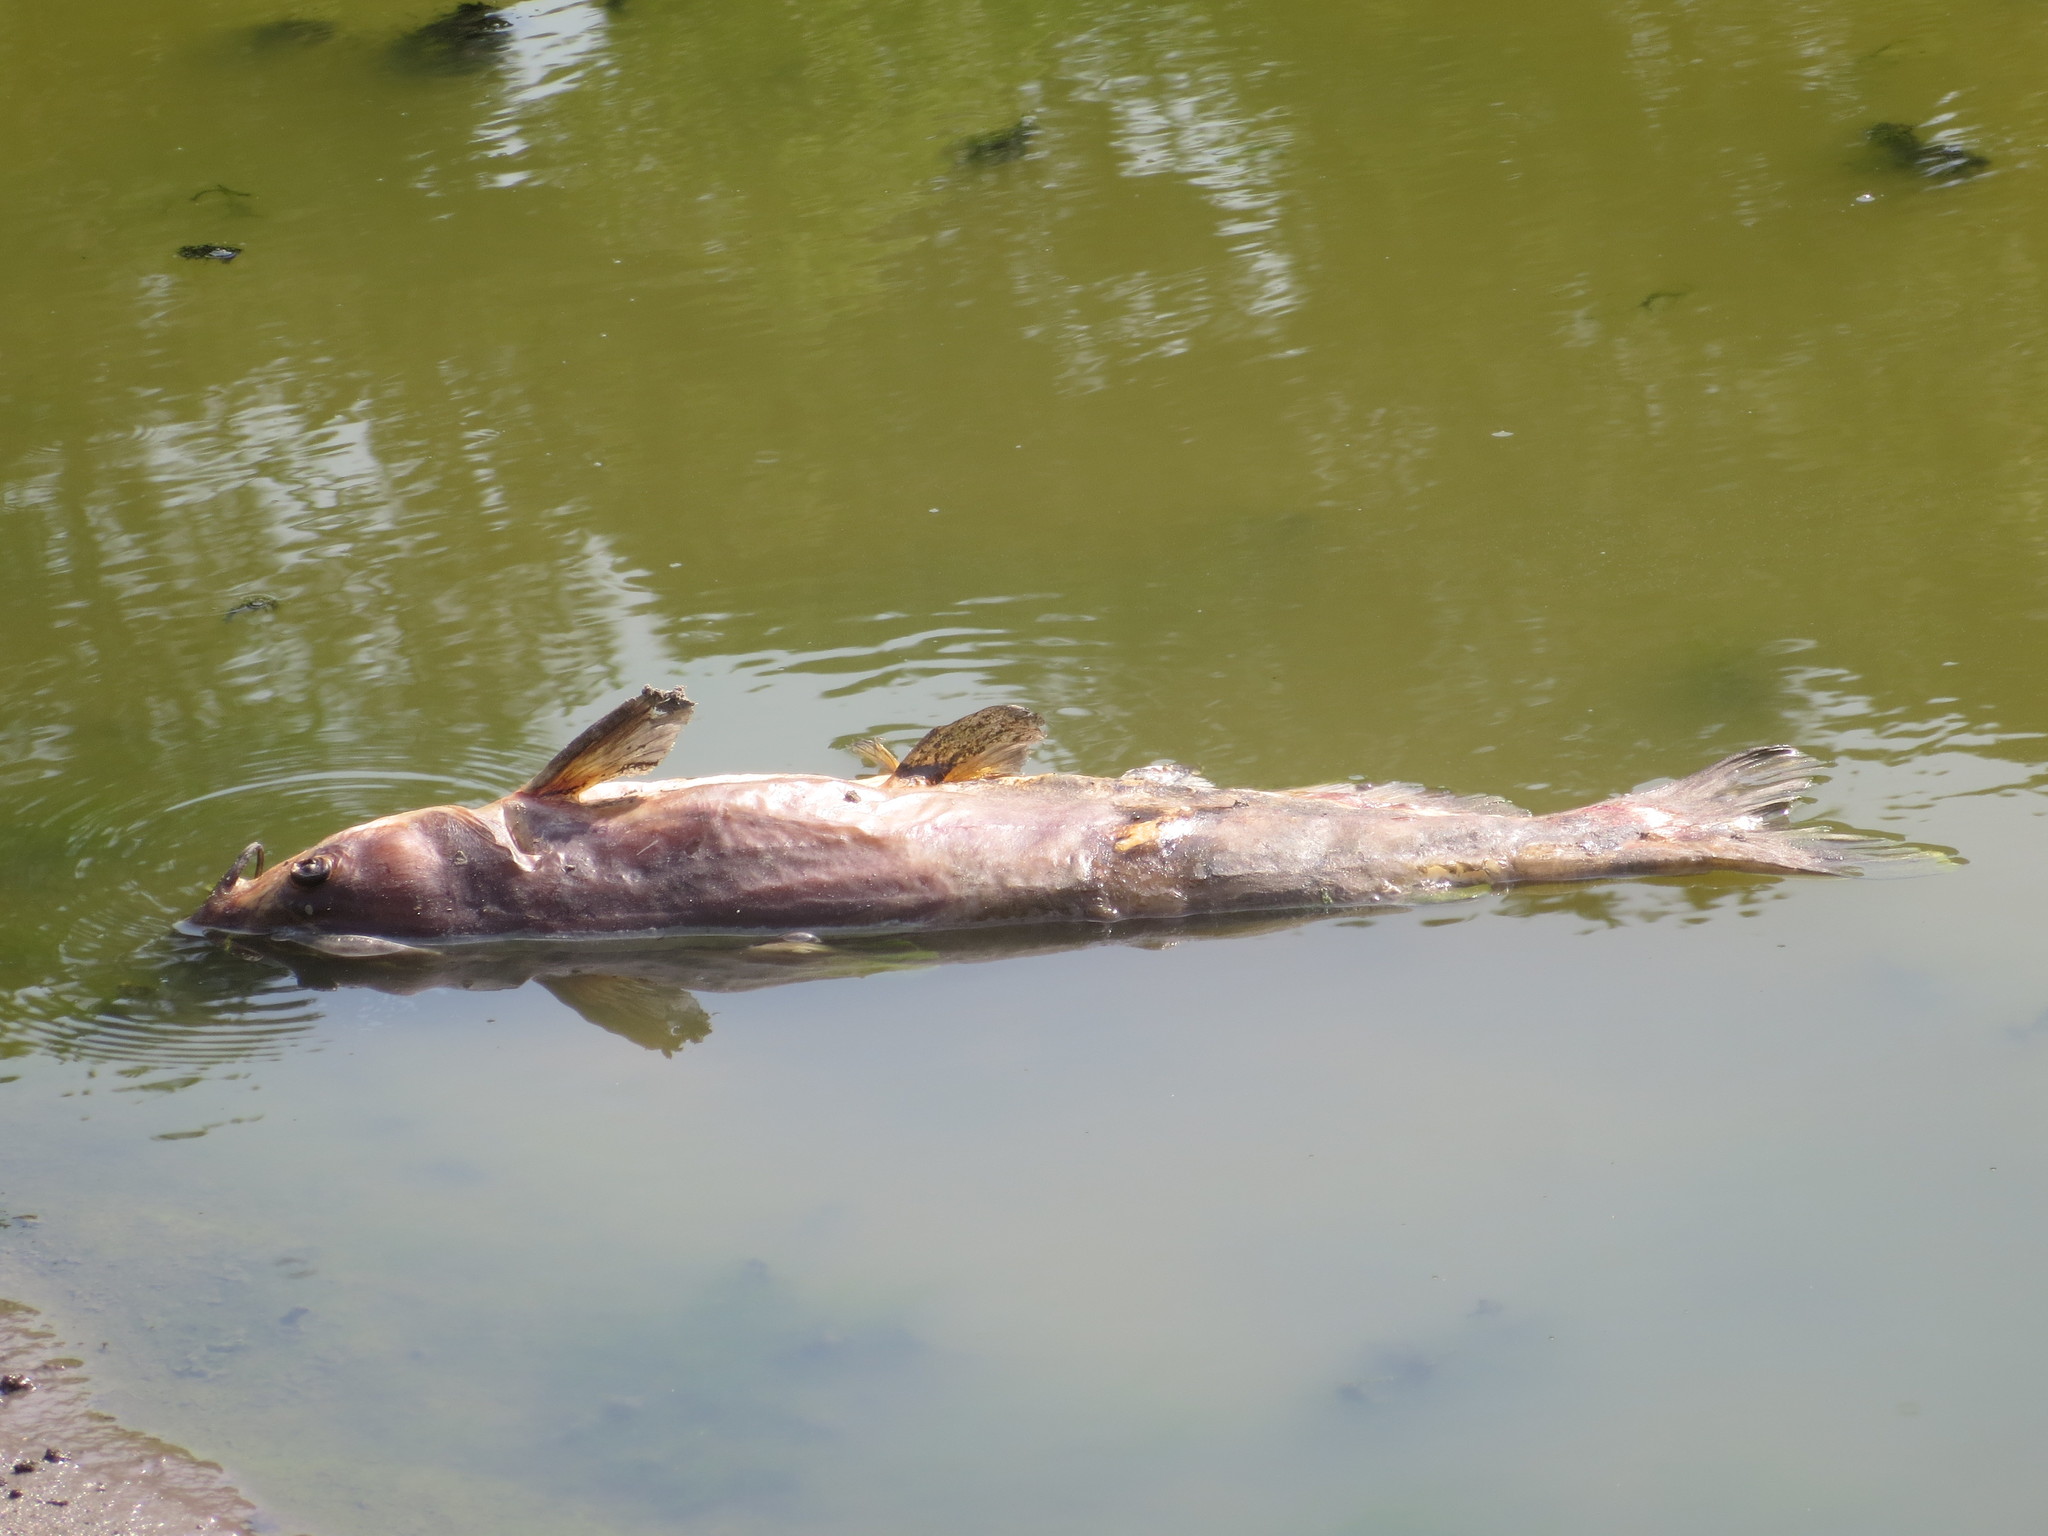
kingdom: Animalia
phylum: Chordata
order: Siluriformes
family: Ictaluridae
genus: Ictalurus
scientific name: Ictalurus punctatus
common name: Channel catfish
